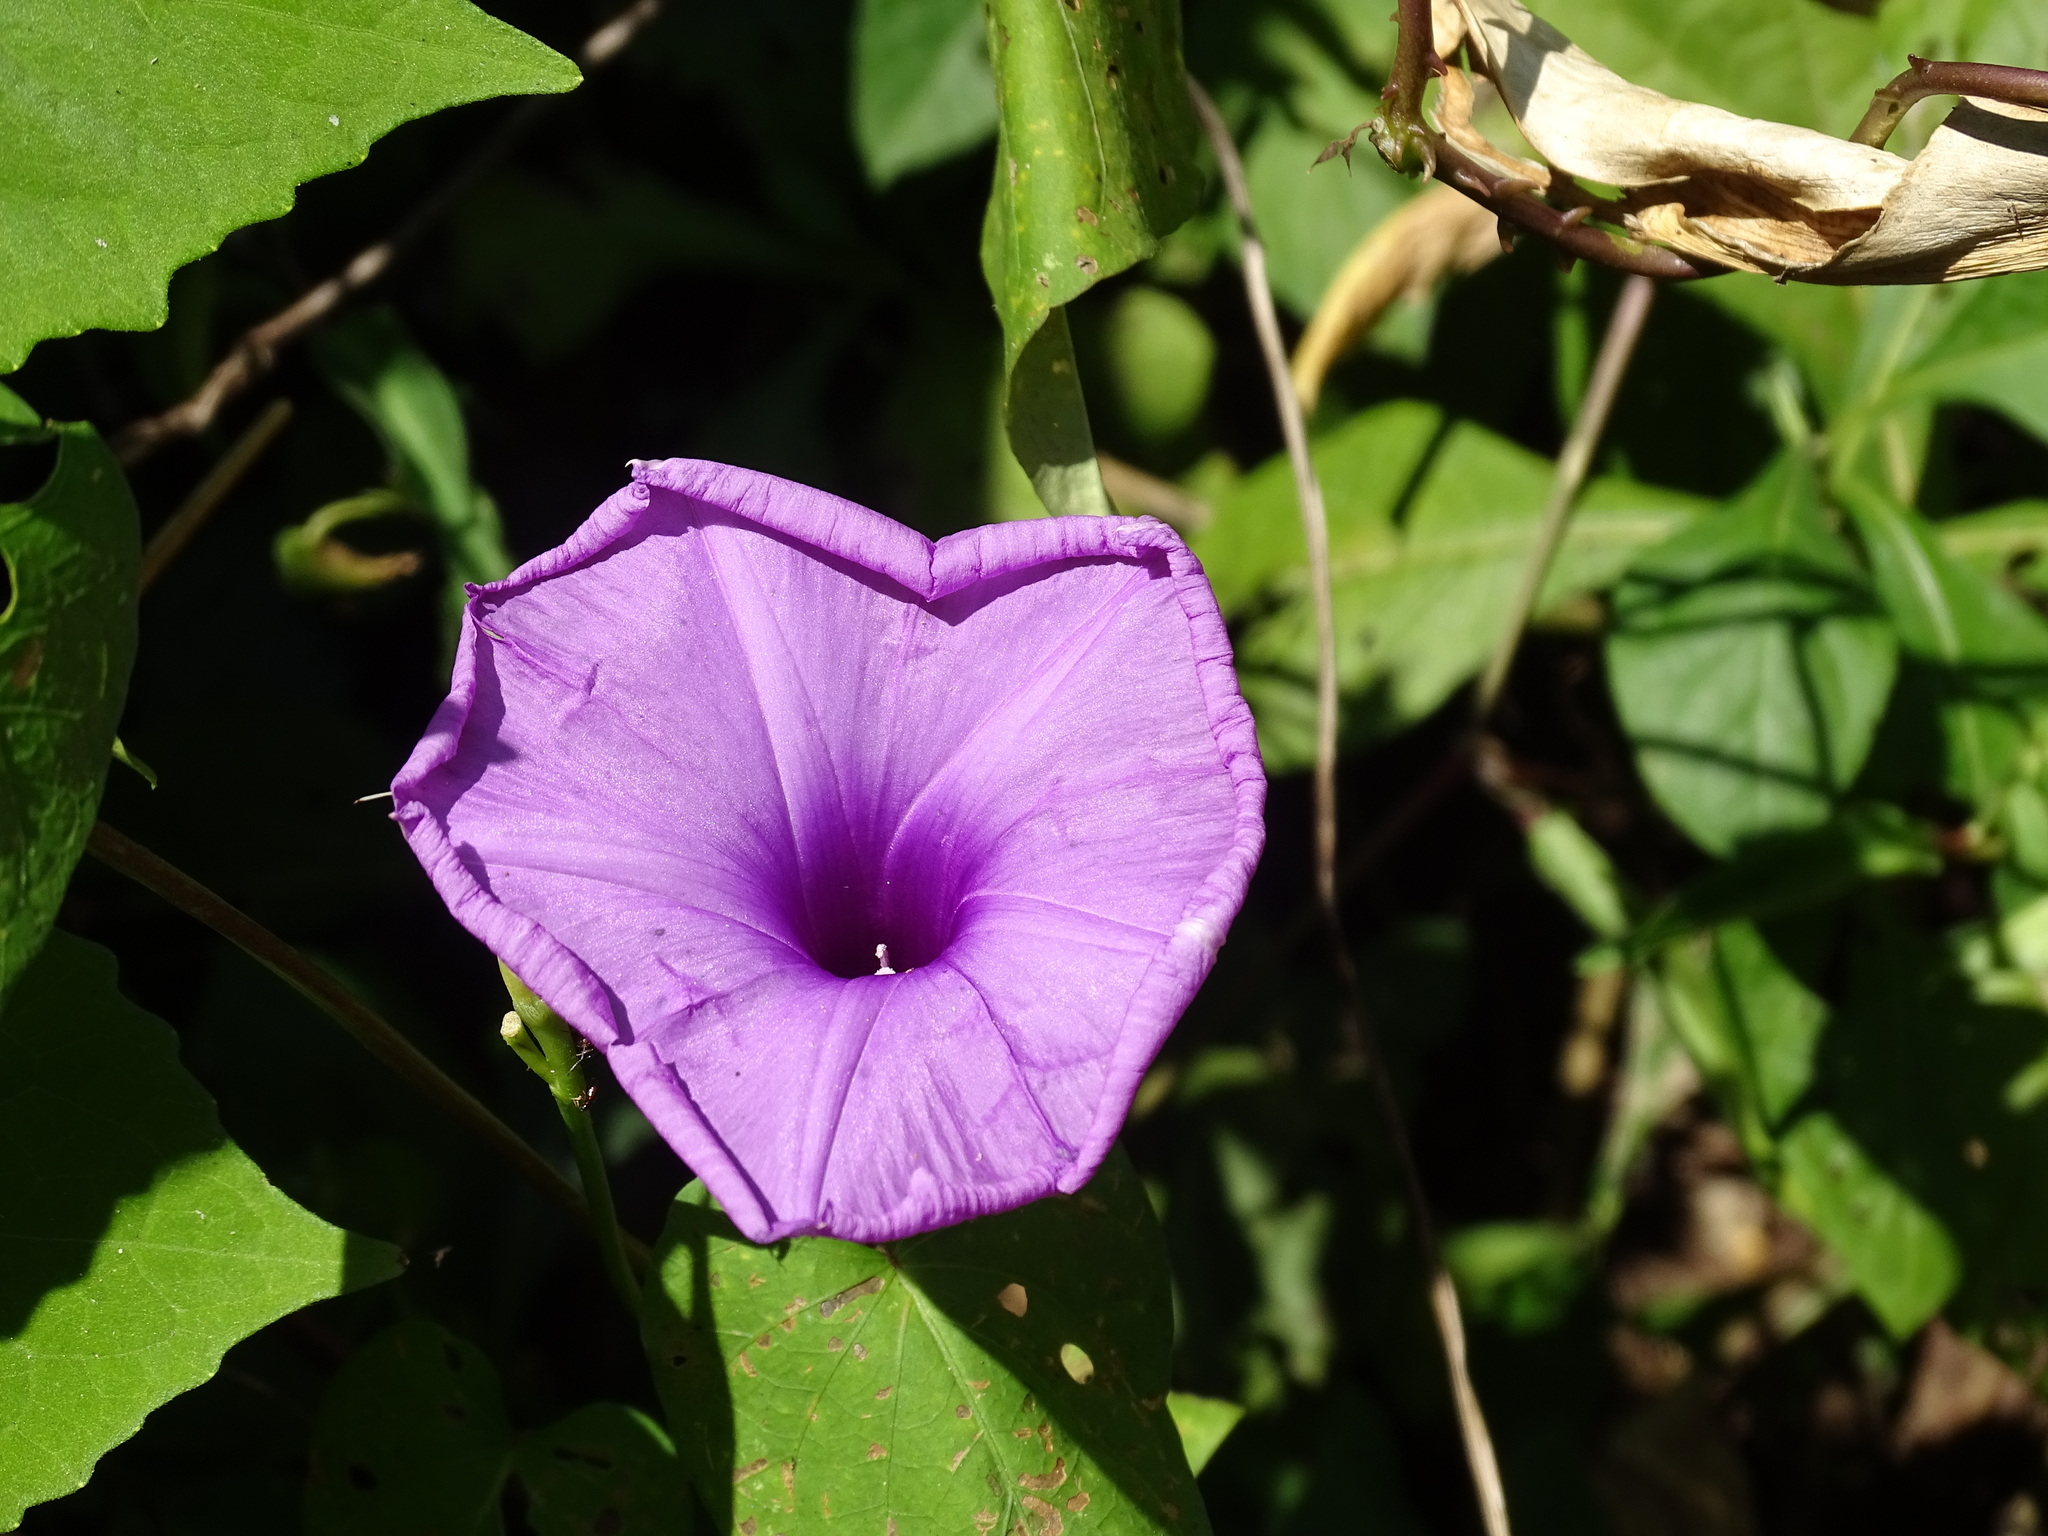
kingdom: Plantae
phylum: Tracheophyta
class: Magnoliopsida
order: Solanales
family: Convolvulaceae
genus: Ipomoea
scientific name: Ipomoea splendor-sylvae
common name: Morning glory
